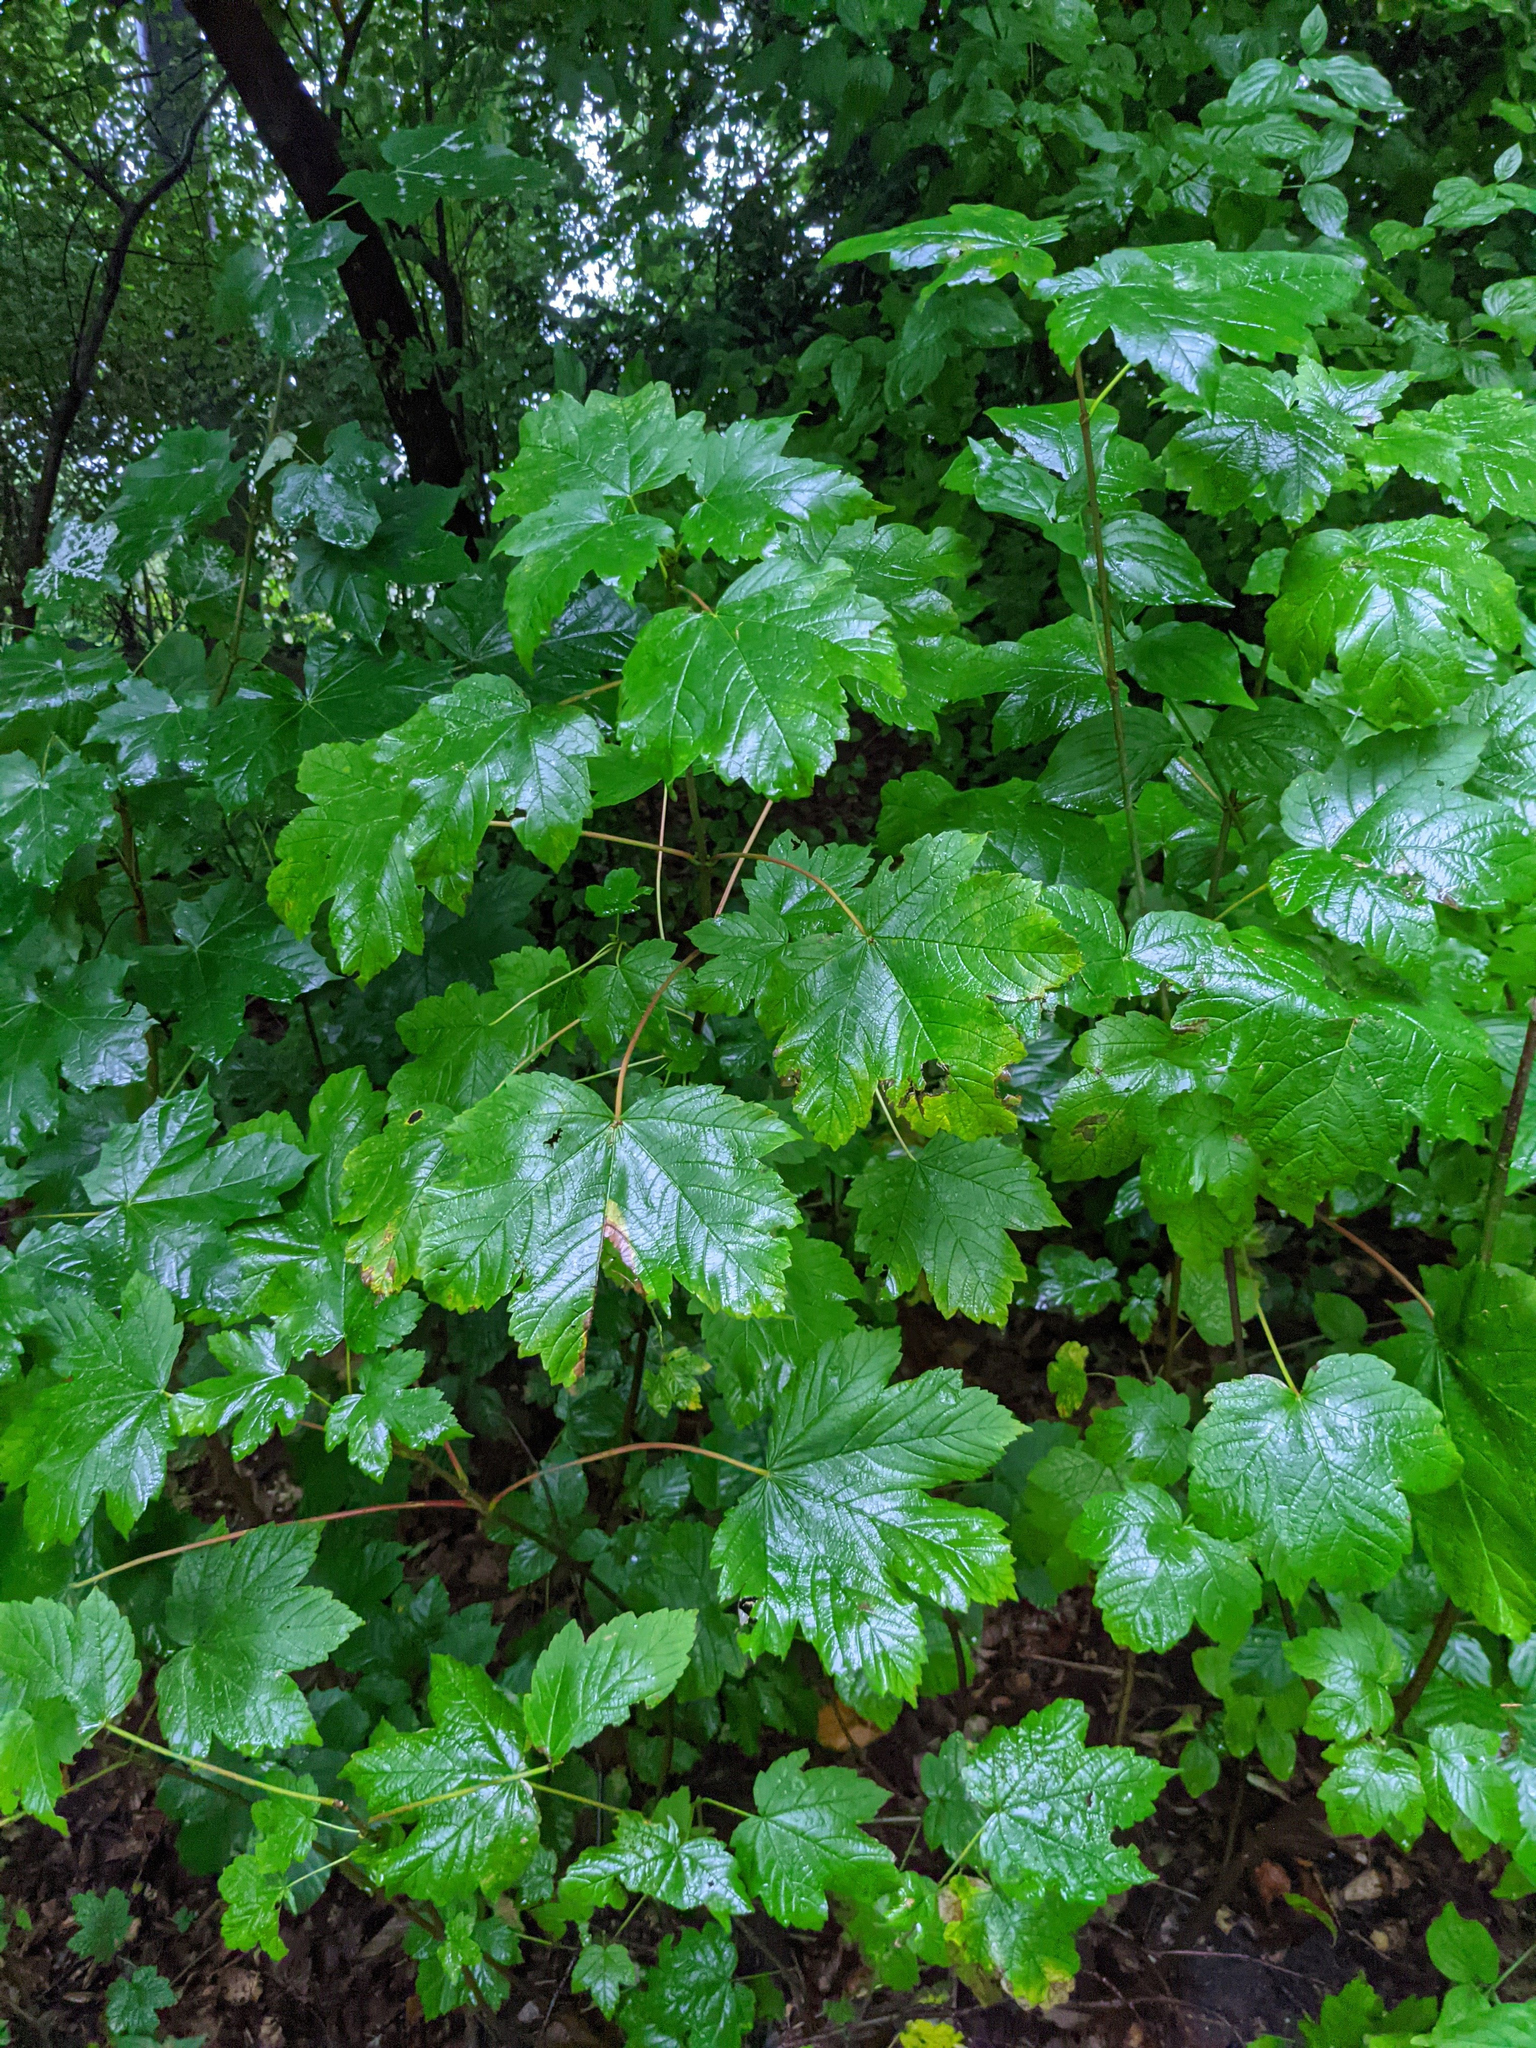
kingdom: Plantae
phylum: Tracheophyta
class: Magnoliopsida
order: Sapindales
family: Sapindaceae
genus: Acer
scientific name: Acer pseudoplatanus
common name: Sycamore
